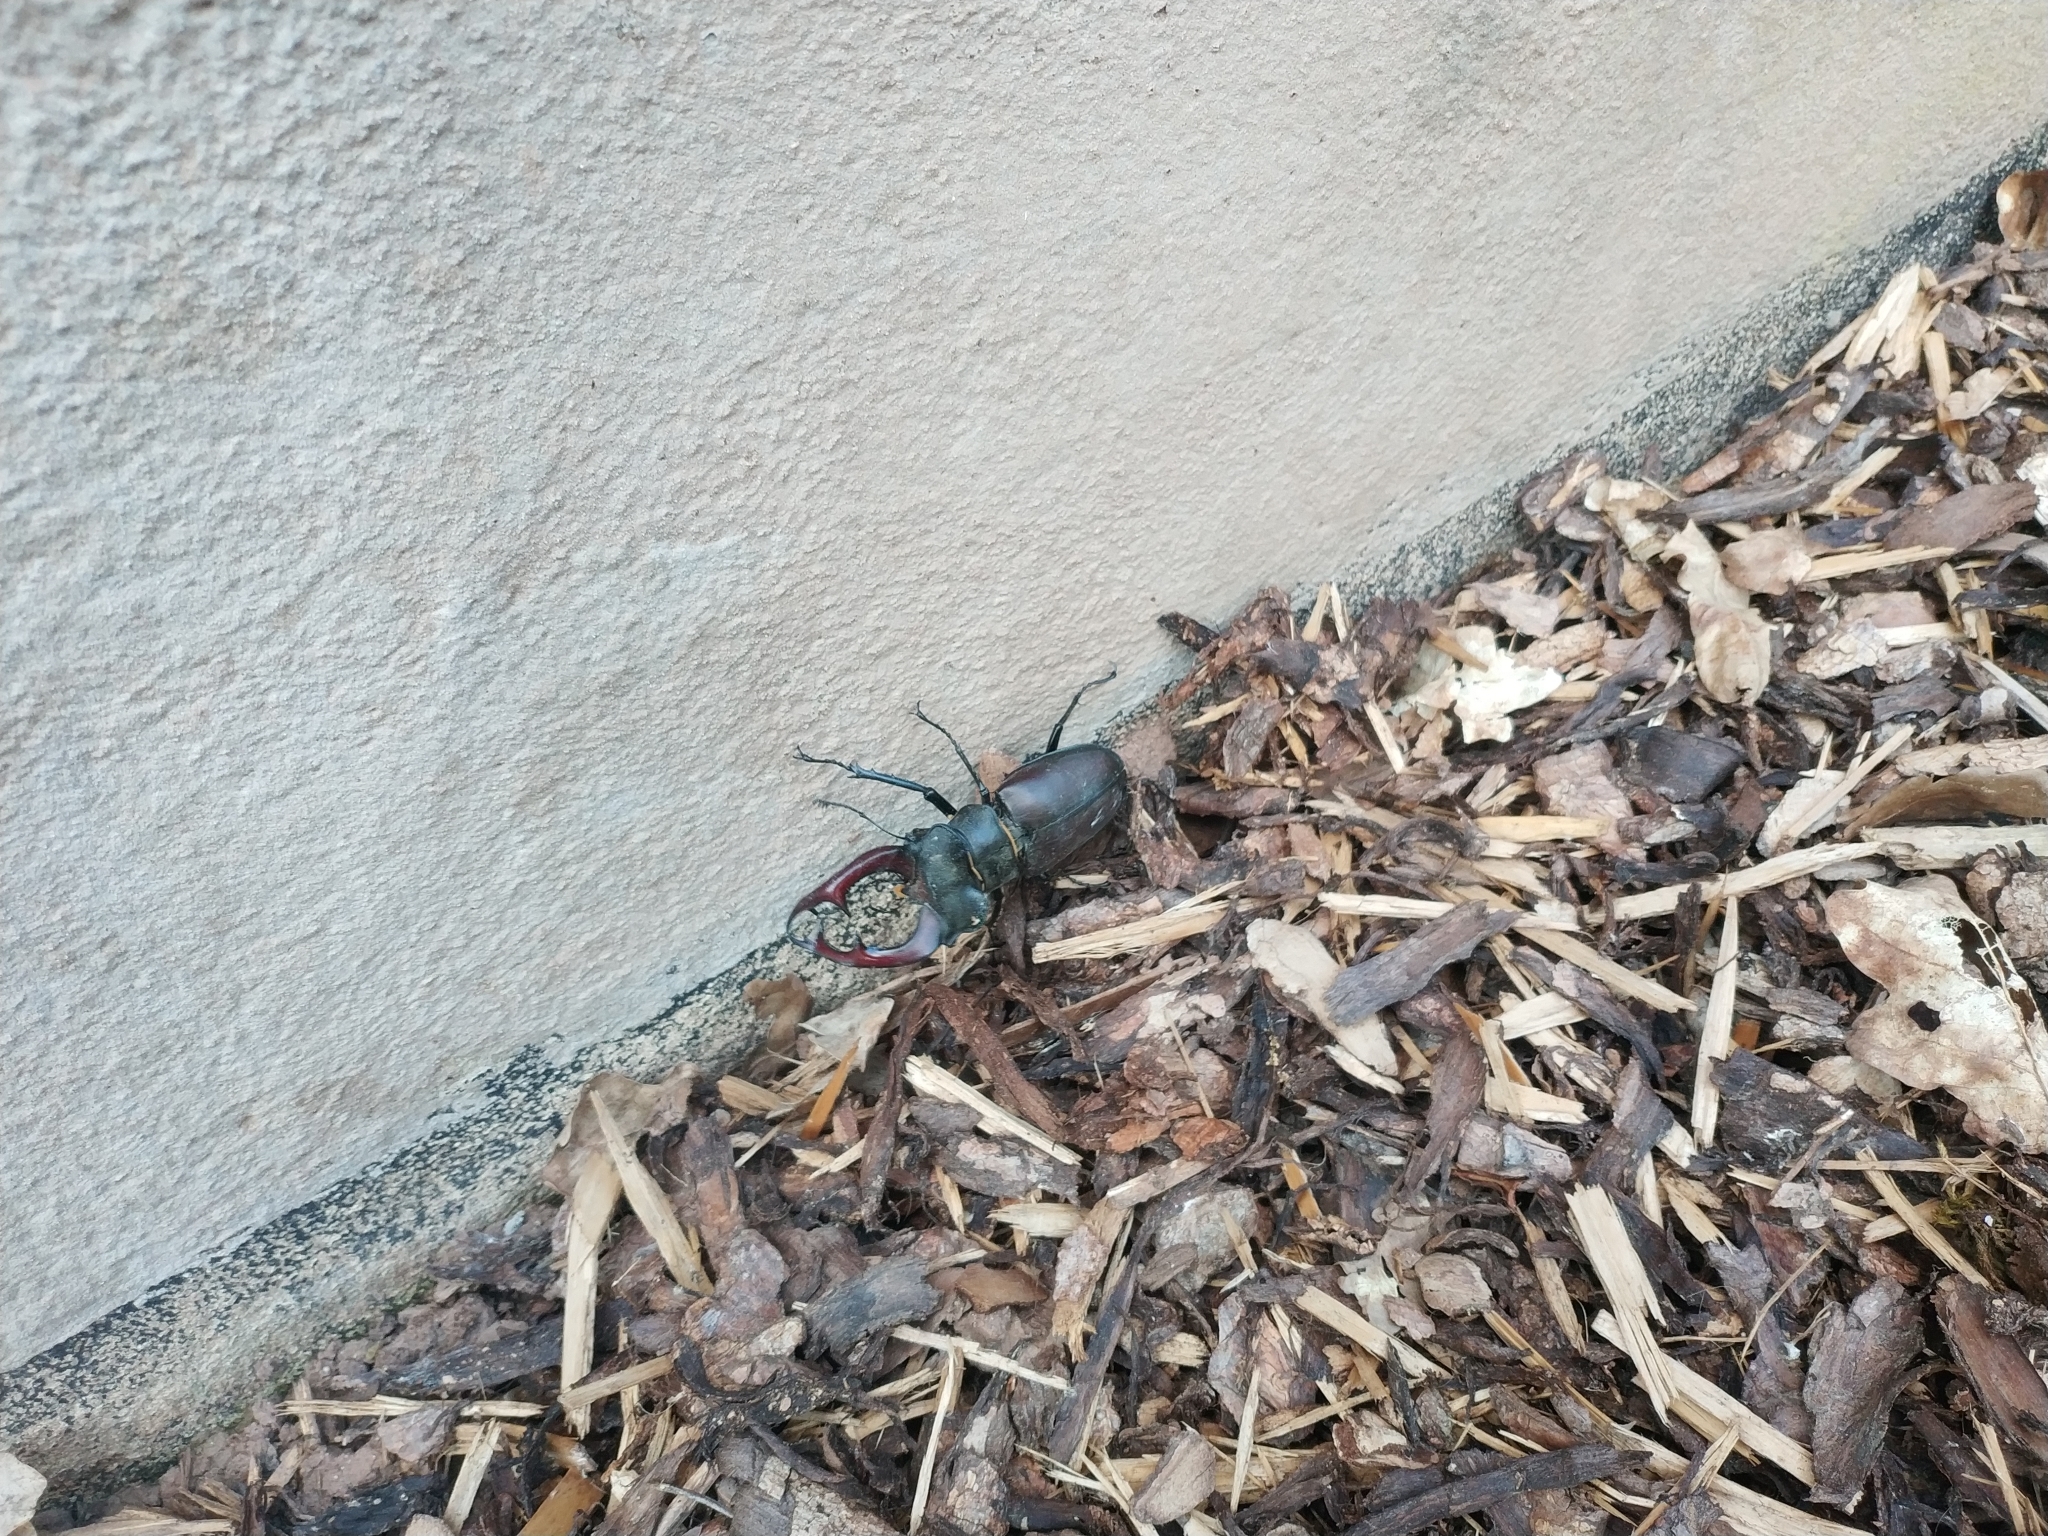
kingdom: Animalia
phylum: Arthropoda
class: Insecta
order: Coleoptera
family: Lucanidae
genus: Lucanus
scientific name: Lucanus cervus
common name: Stag beetle
